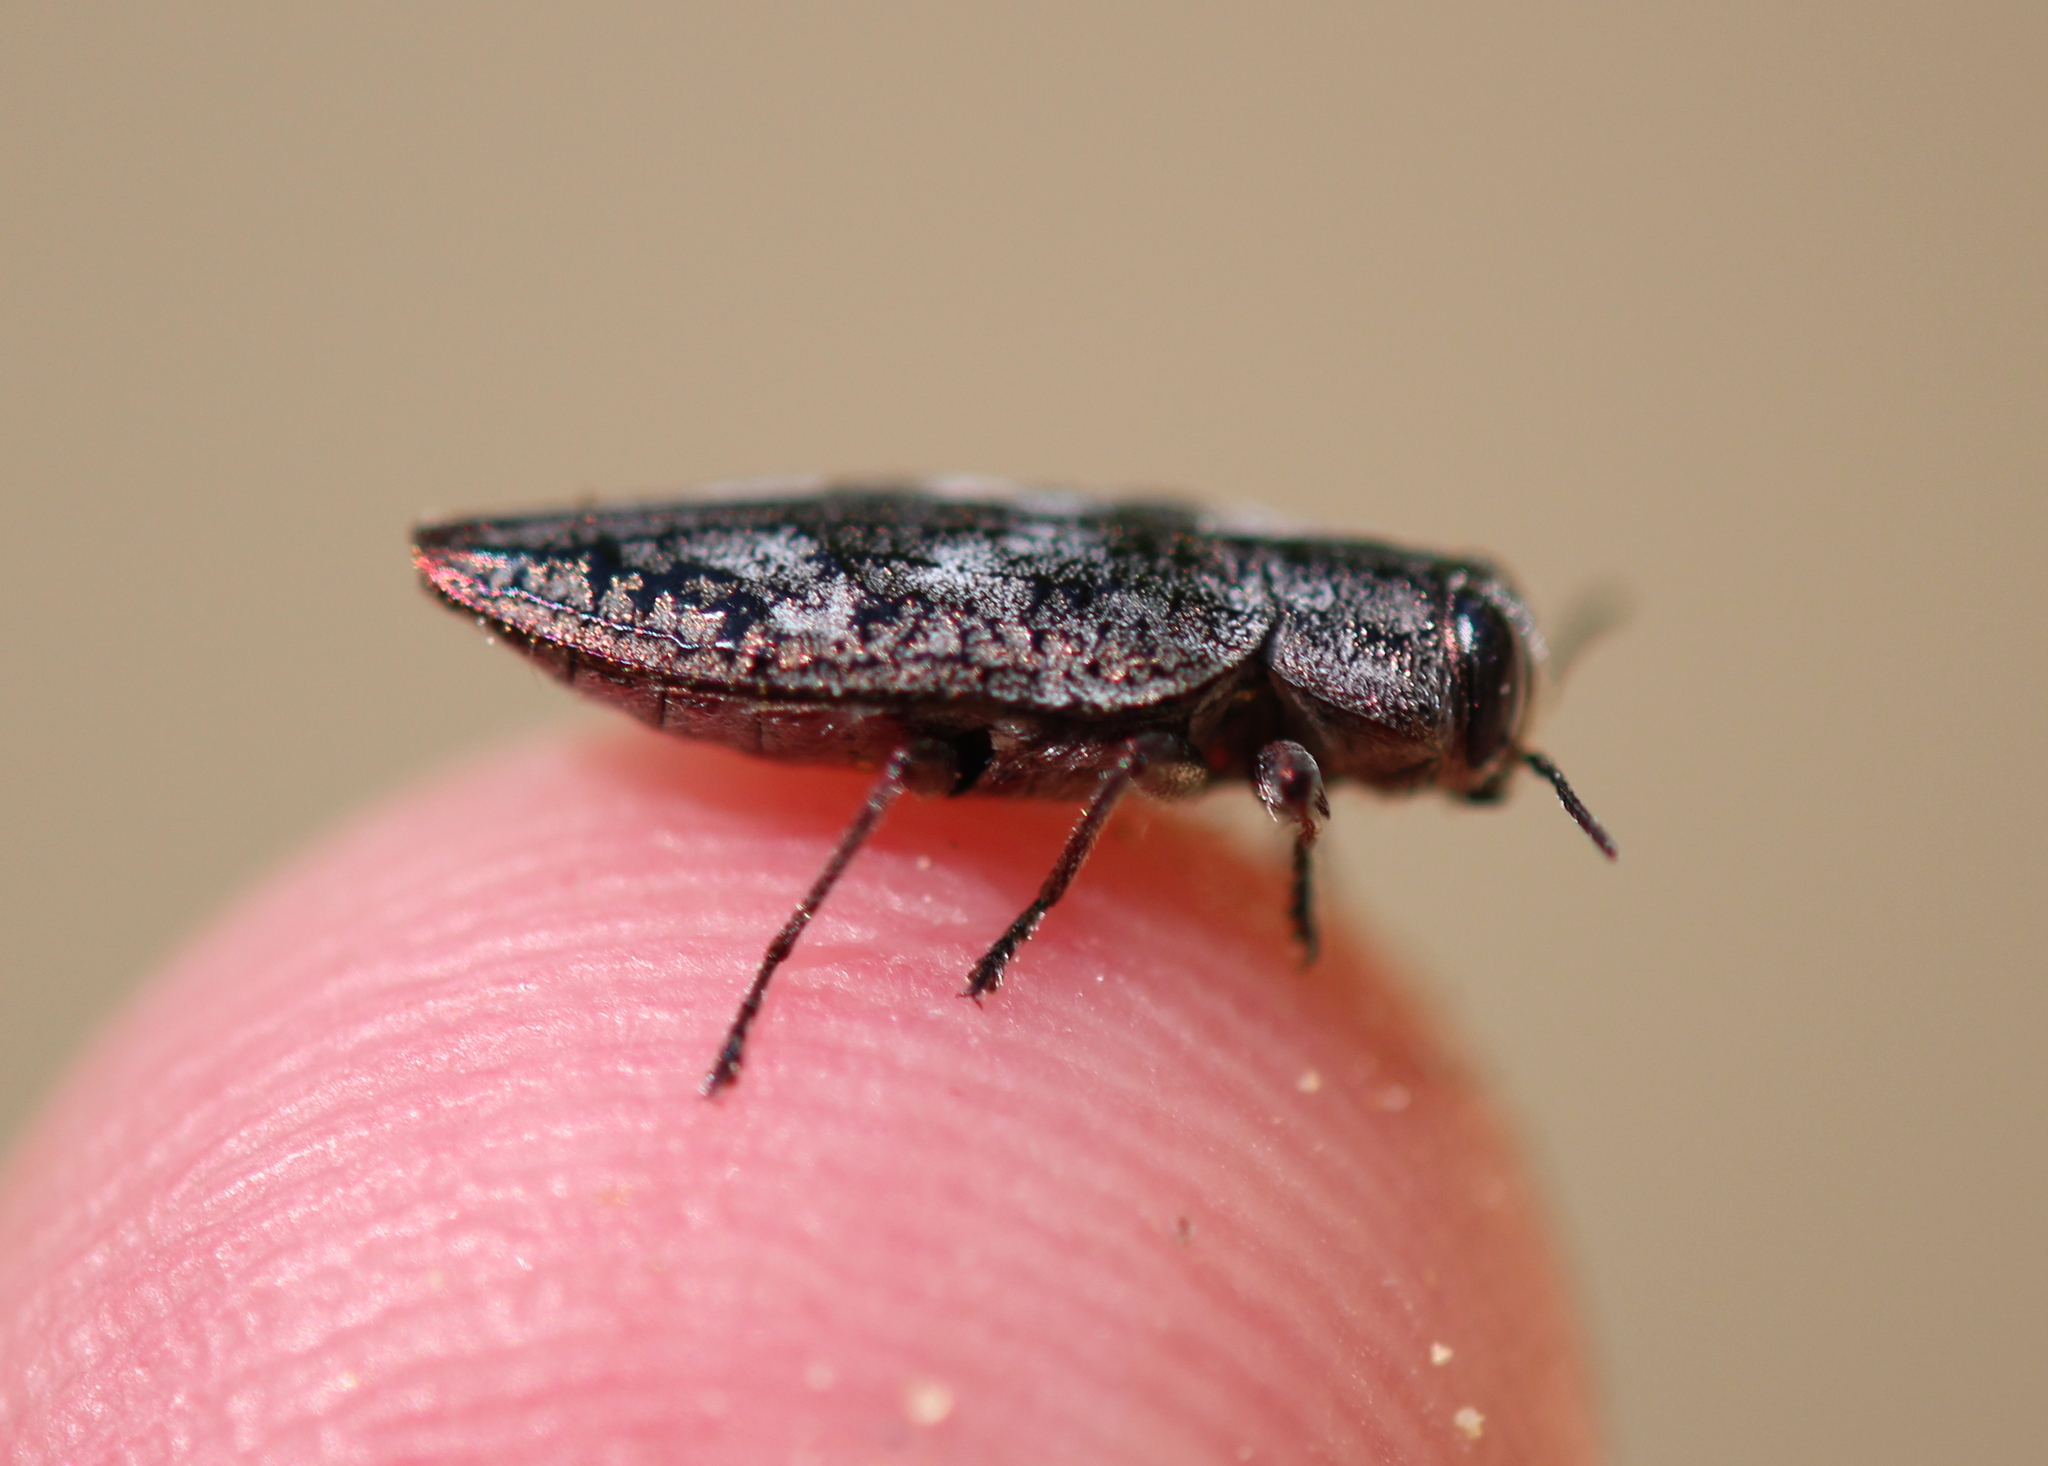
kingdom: Animalia
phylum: Arthropoda
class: Insecta
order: Coleoptera
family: Buprestidae
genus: Chrysobothris
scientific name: Chrysobothris scabripennis
